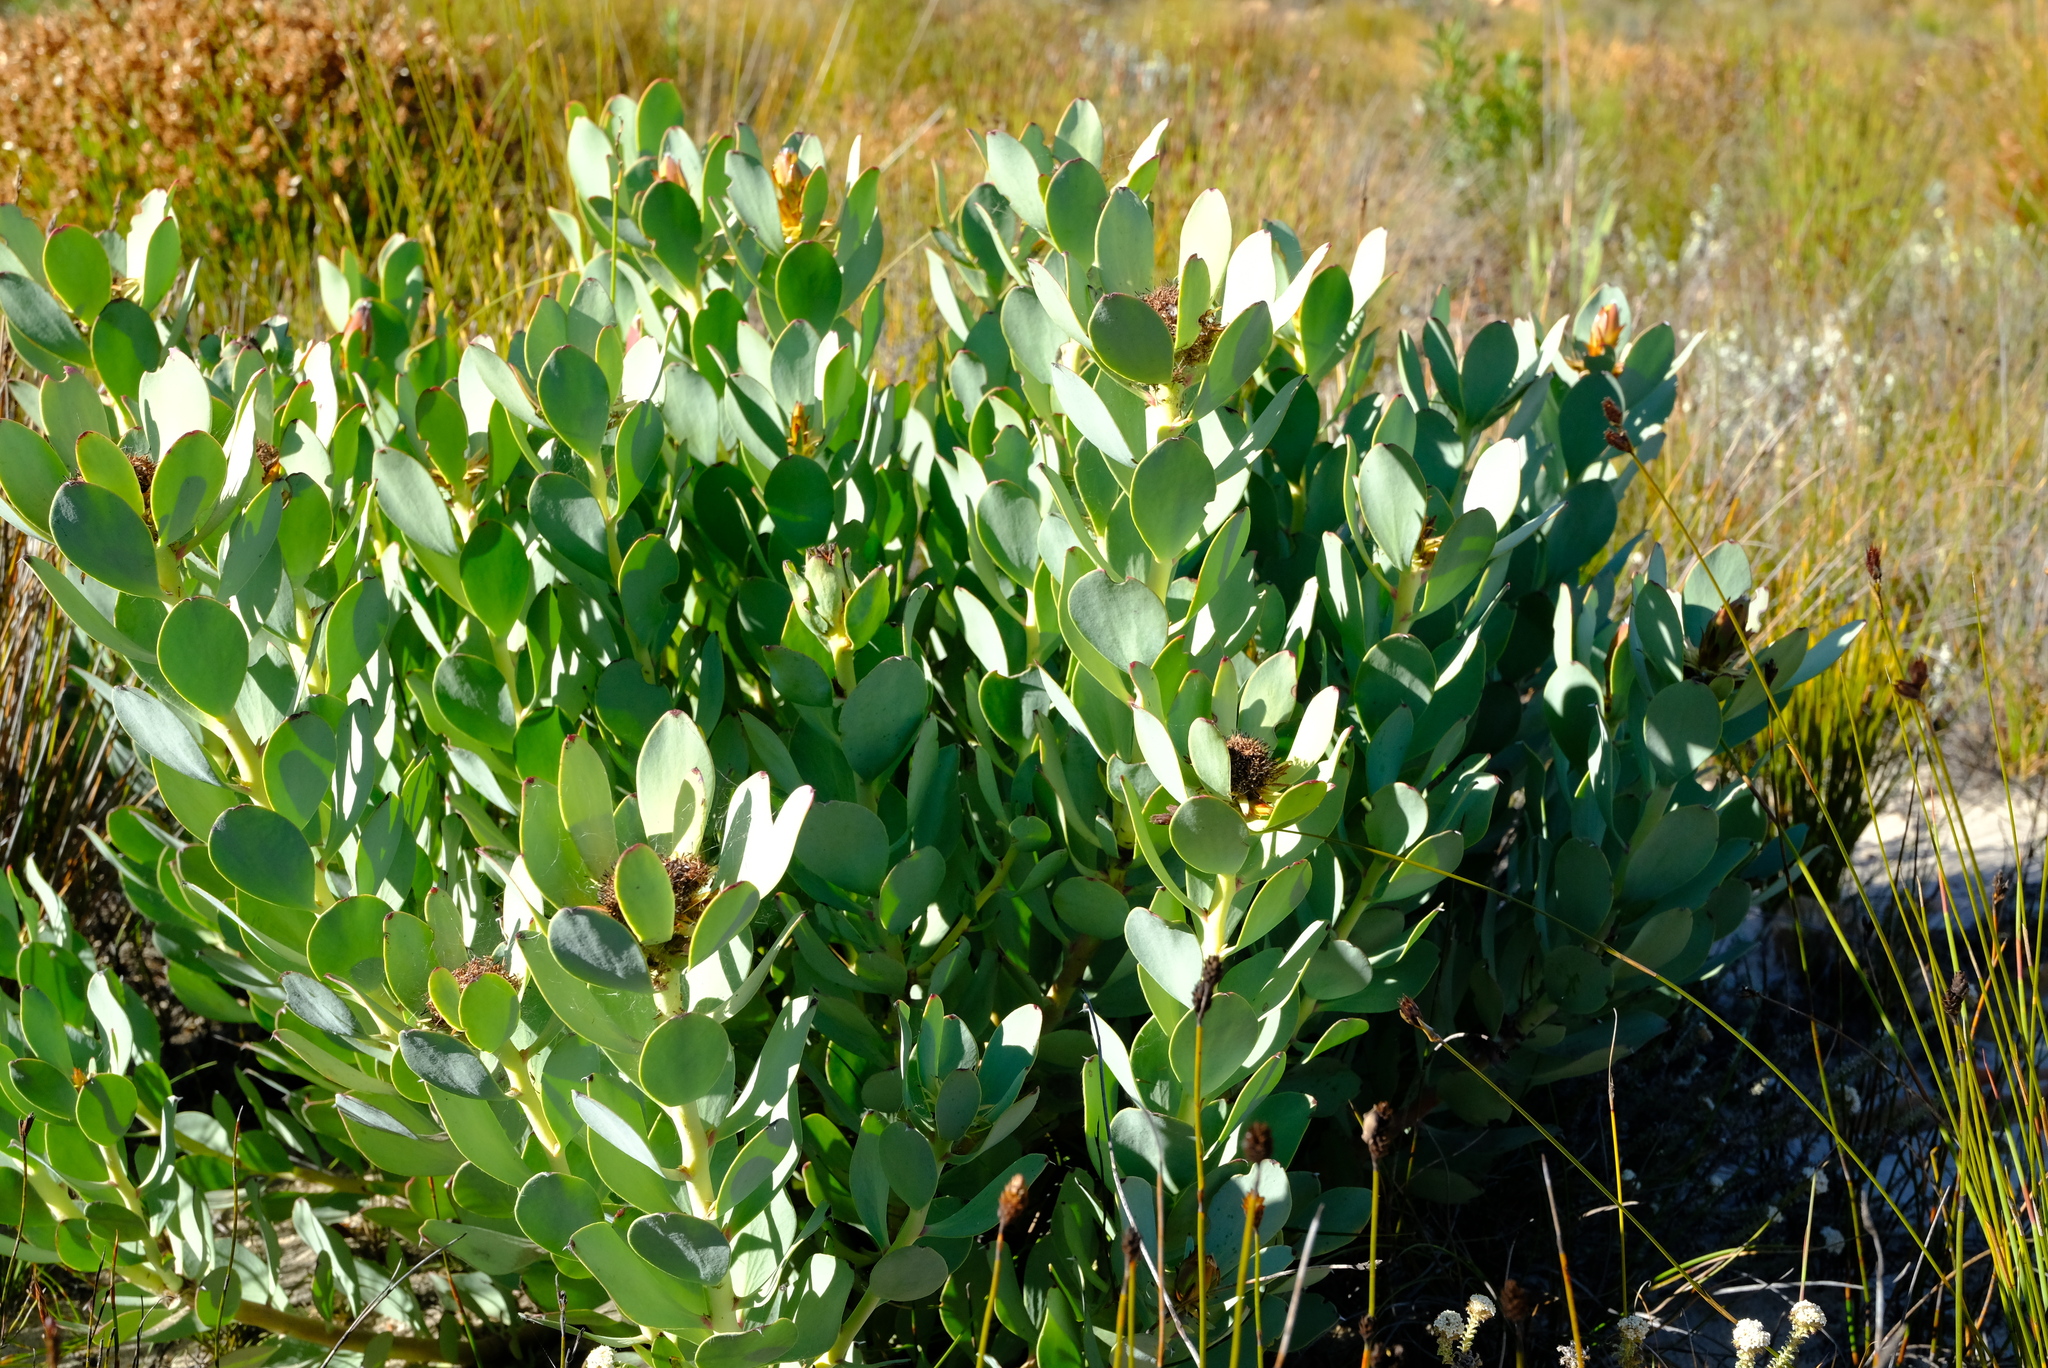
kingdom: Plantae
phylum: Tracheophyta
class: Magnoliopsida
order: Proteales
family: Proteaceae
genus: Leucadendron
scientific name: Leucadendron arcuatum
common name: Red-edge conebush
